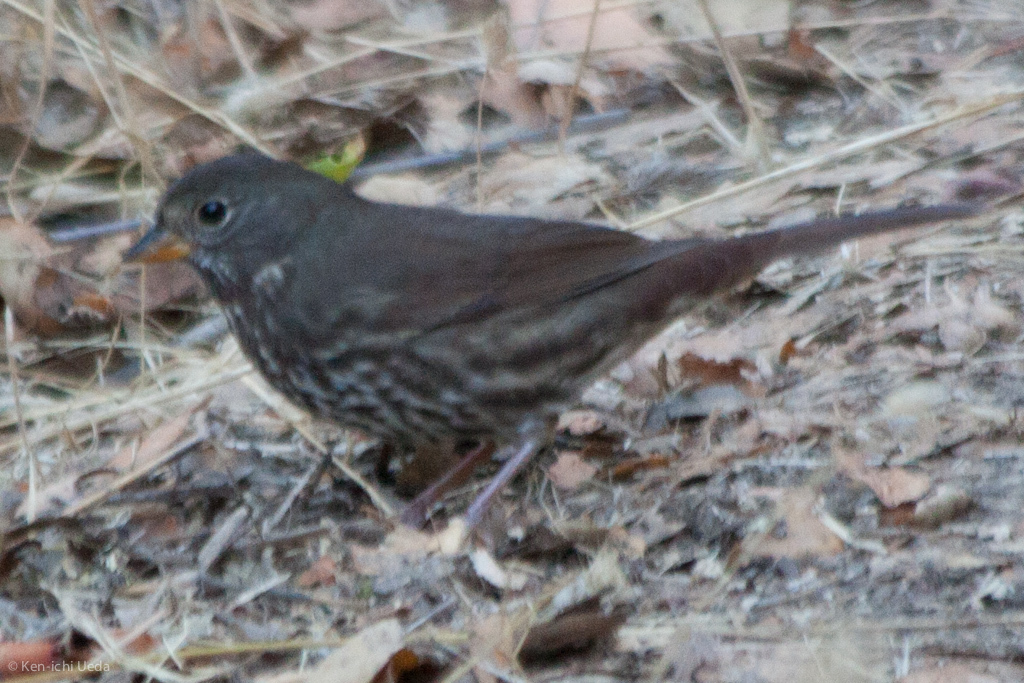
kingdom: Animalia
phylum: Chordata
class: Aves
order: Passeriformes
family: Passerellidae
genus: Passerella
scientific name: Passerella iliaca
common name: Fox sparrow
